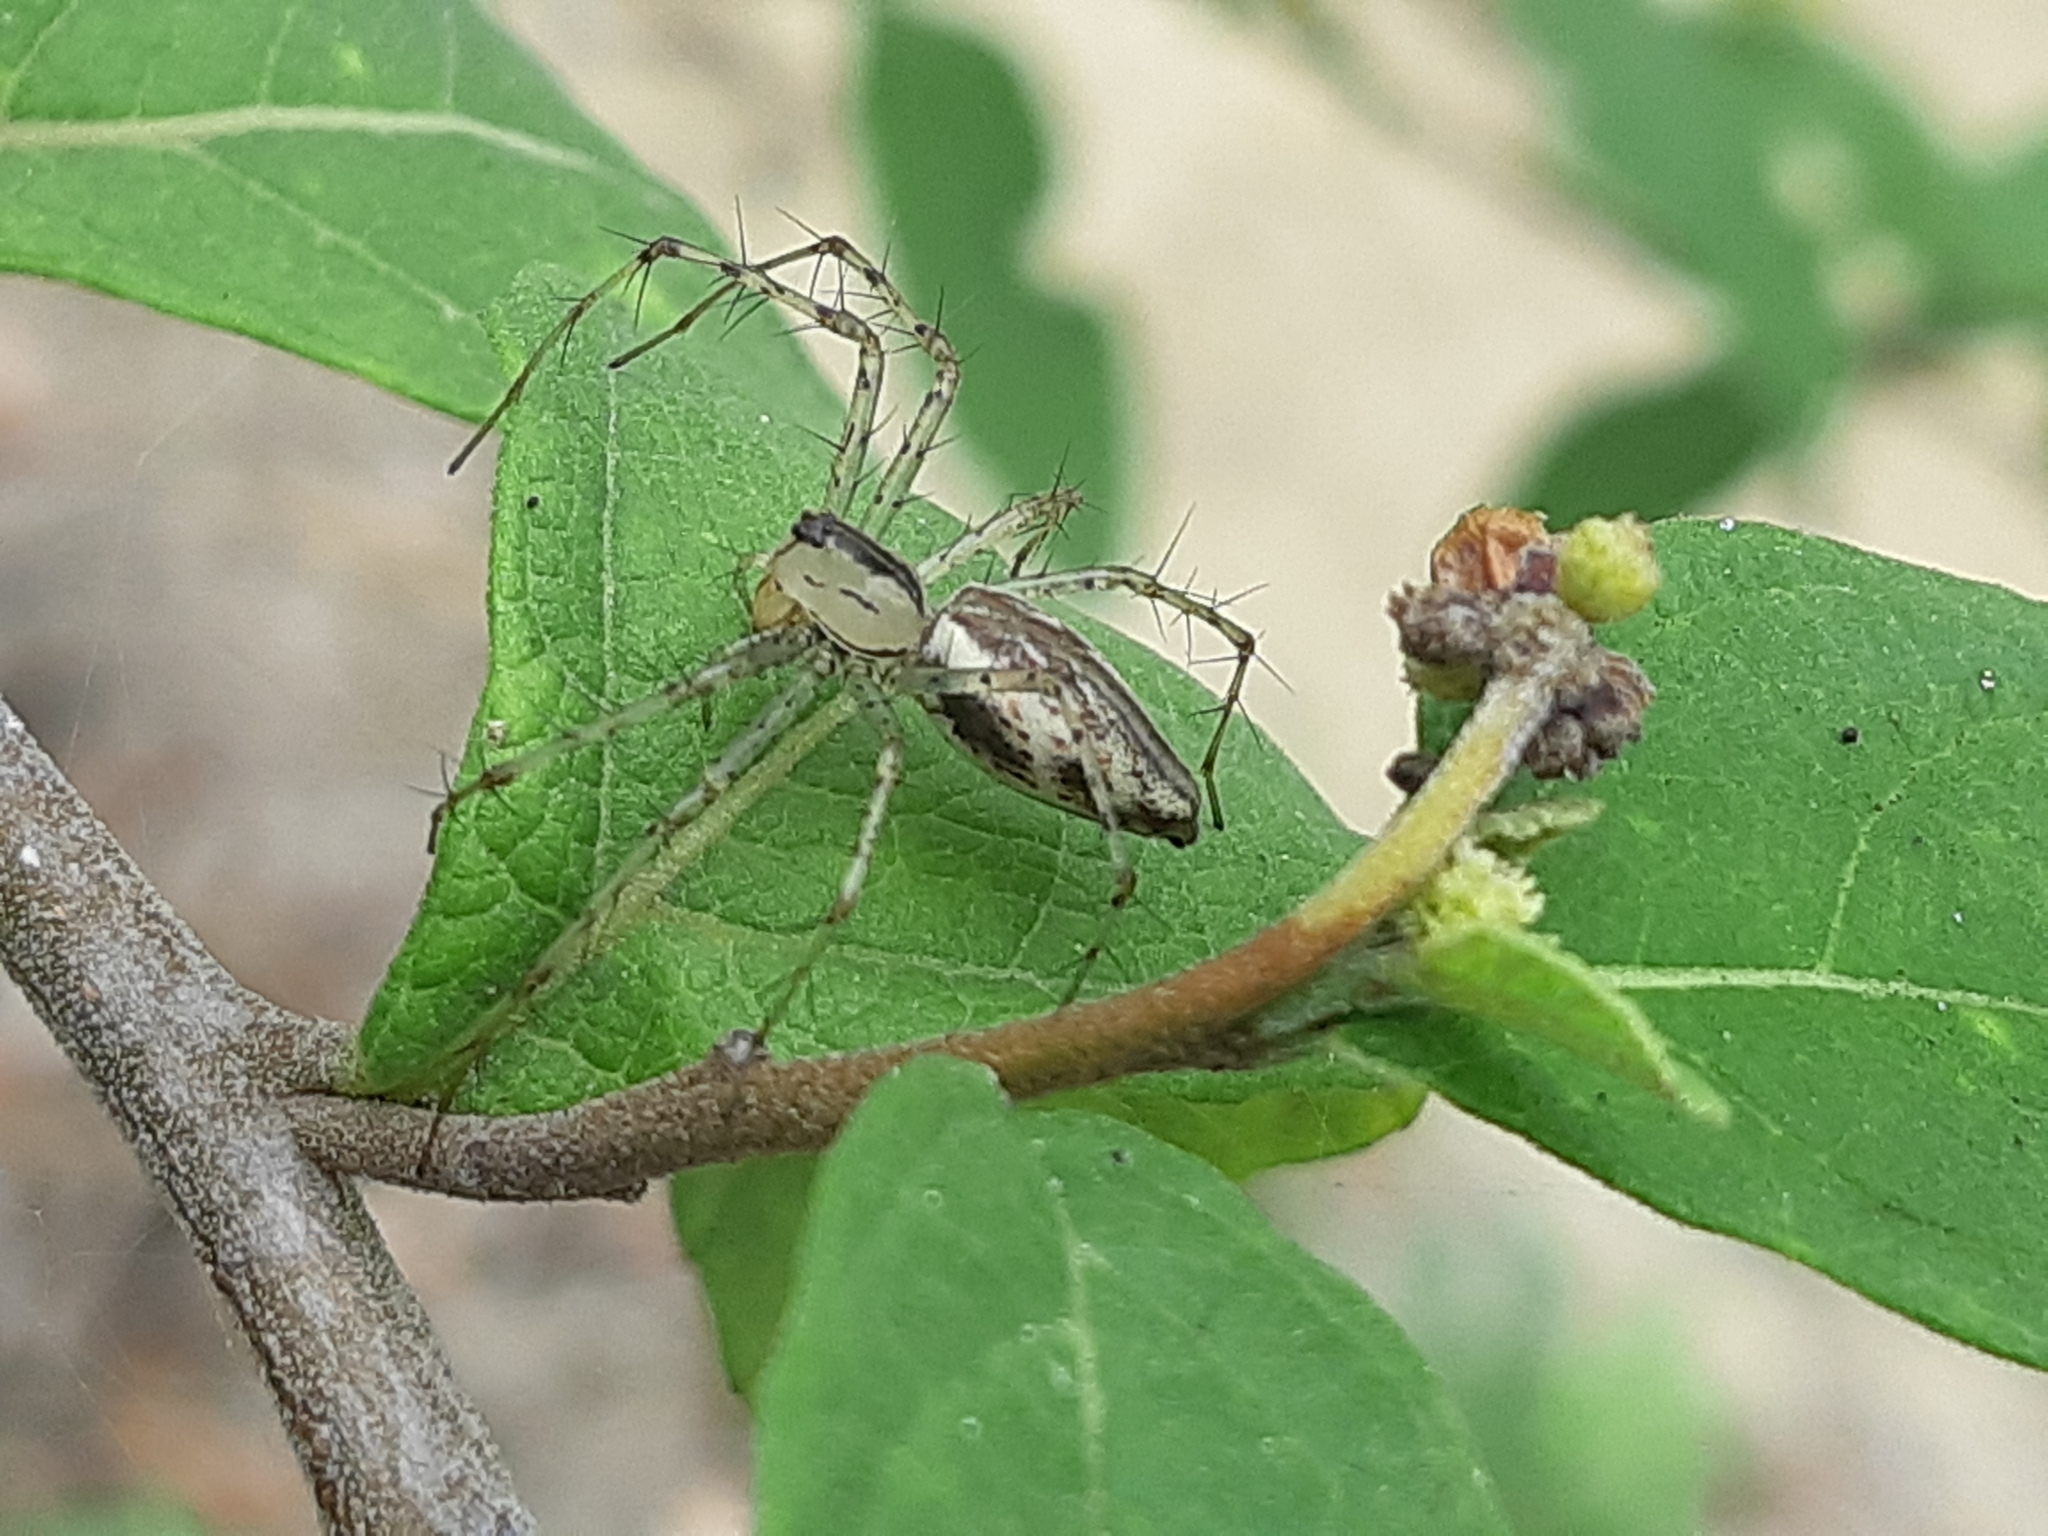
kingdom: Animalia
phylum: Arthropoda
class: Arachnida
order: Araneae
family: Oxyopidae
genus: Peucetia
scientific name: Peucetia rubrolineata
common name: Lynx spiders
